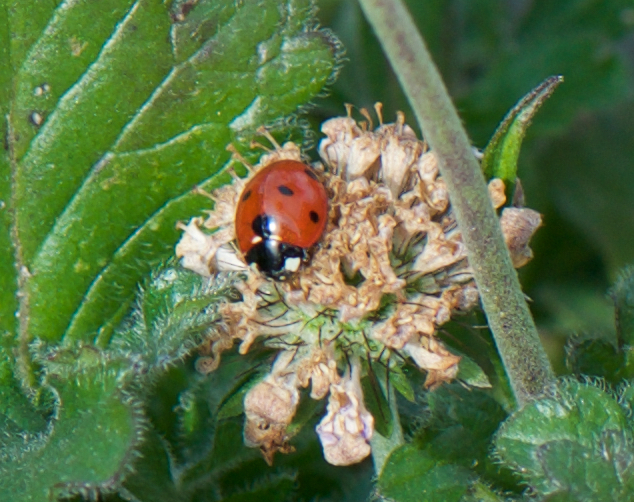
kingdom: Animalia
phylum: Arthropoda
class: Insecta
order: Coleoptera
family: Coccinellidae
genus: Coccinella
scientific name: Coccinella septempunctata
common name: Sevenspotted lady beetle
